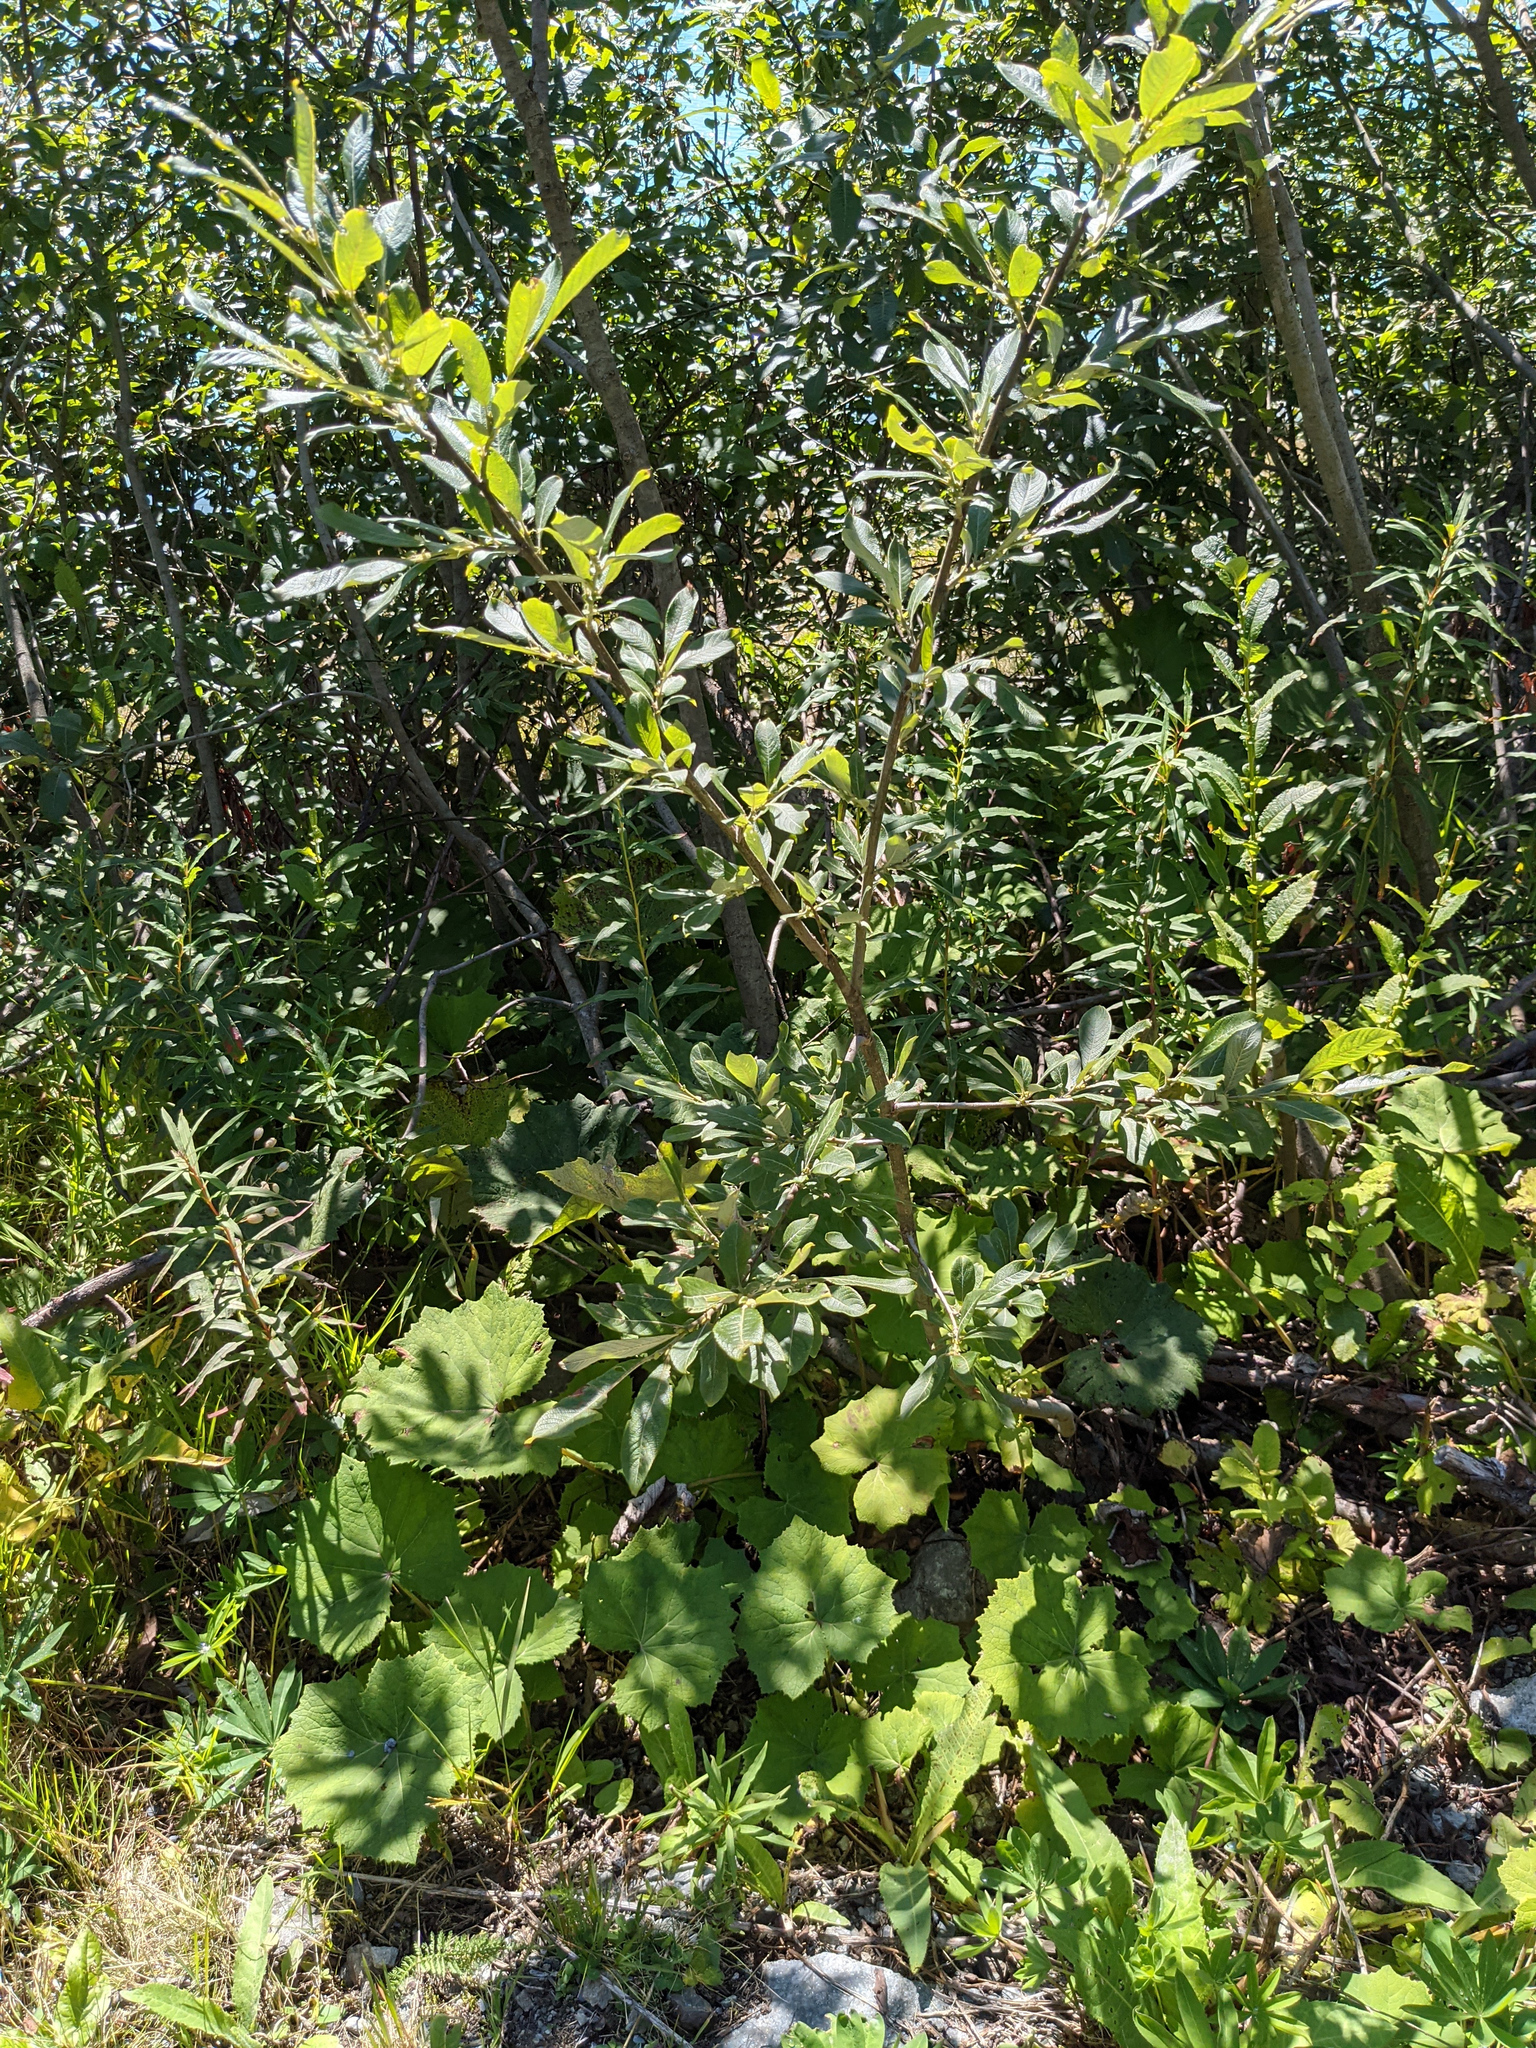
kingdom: Plantae
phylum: Tracheophyta
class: Magnoliopsida
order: Malpighiales
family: Salicaceae
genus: Salix
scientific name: Salix appendiculata
